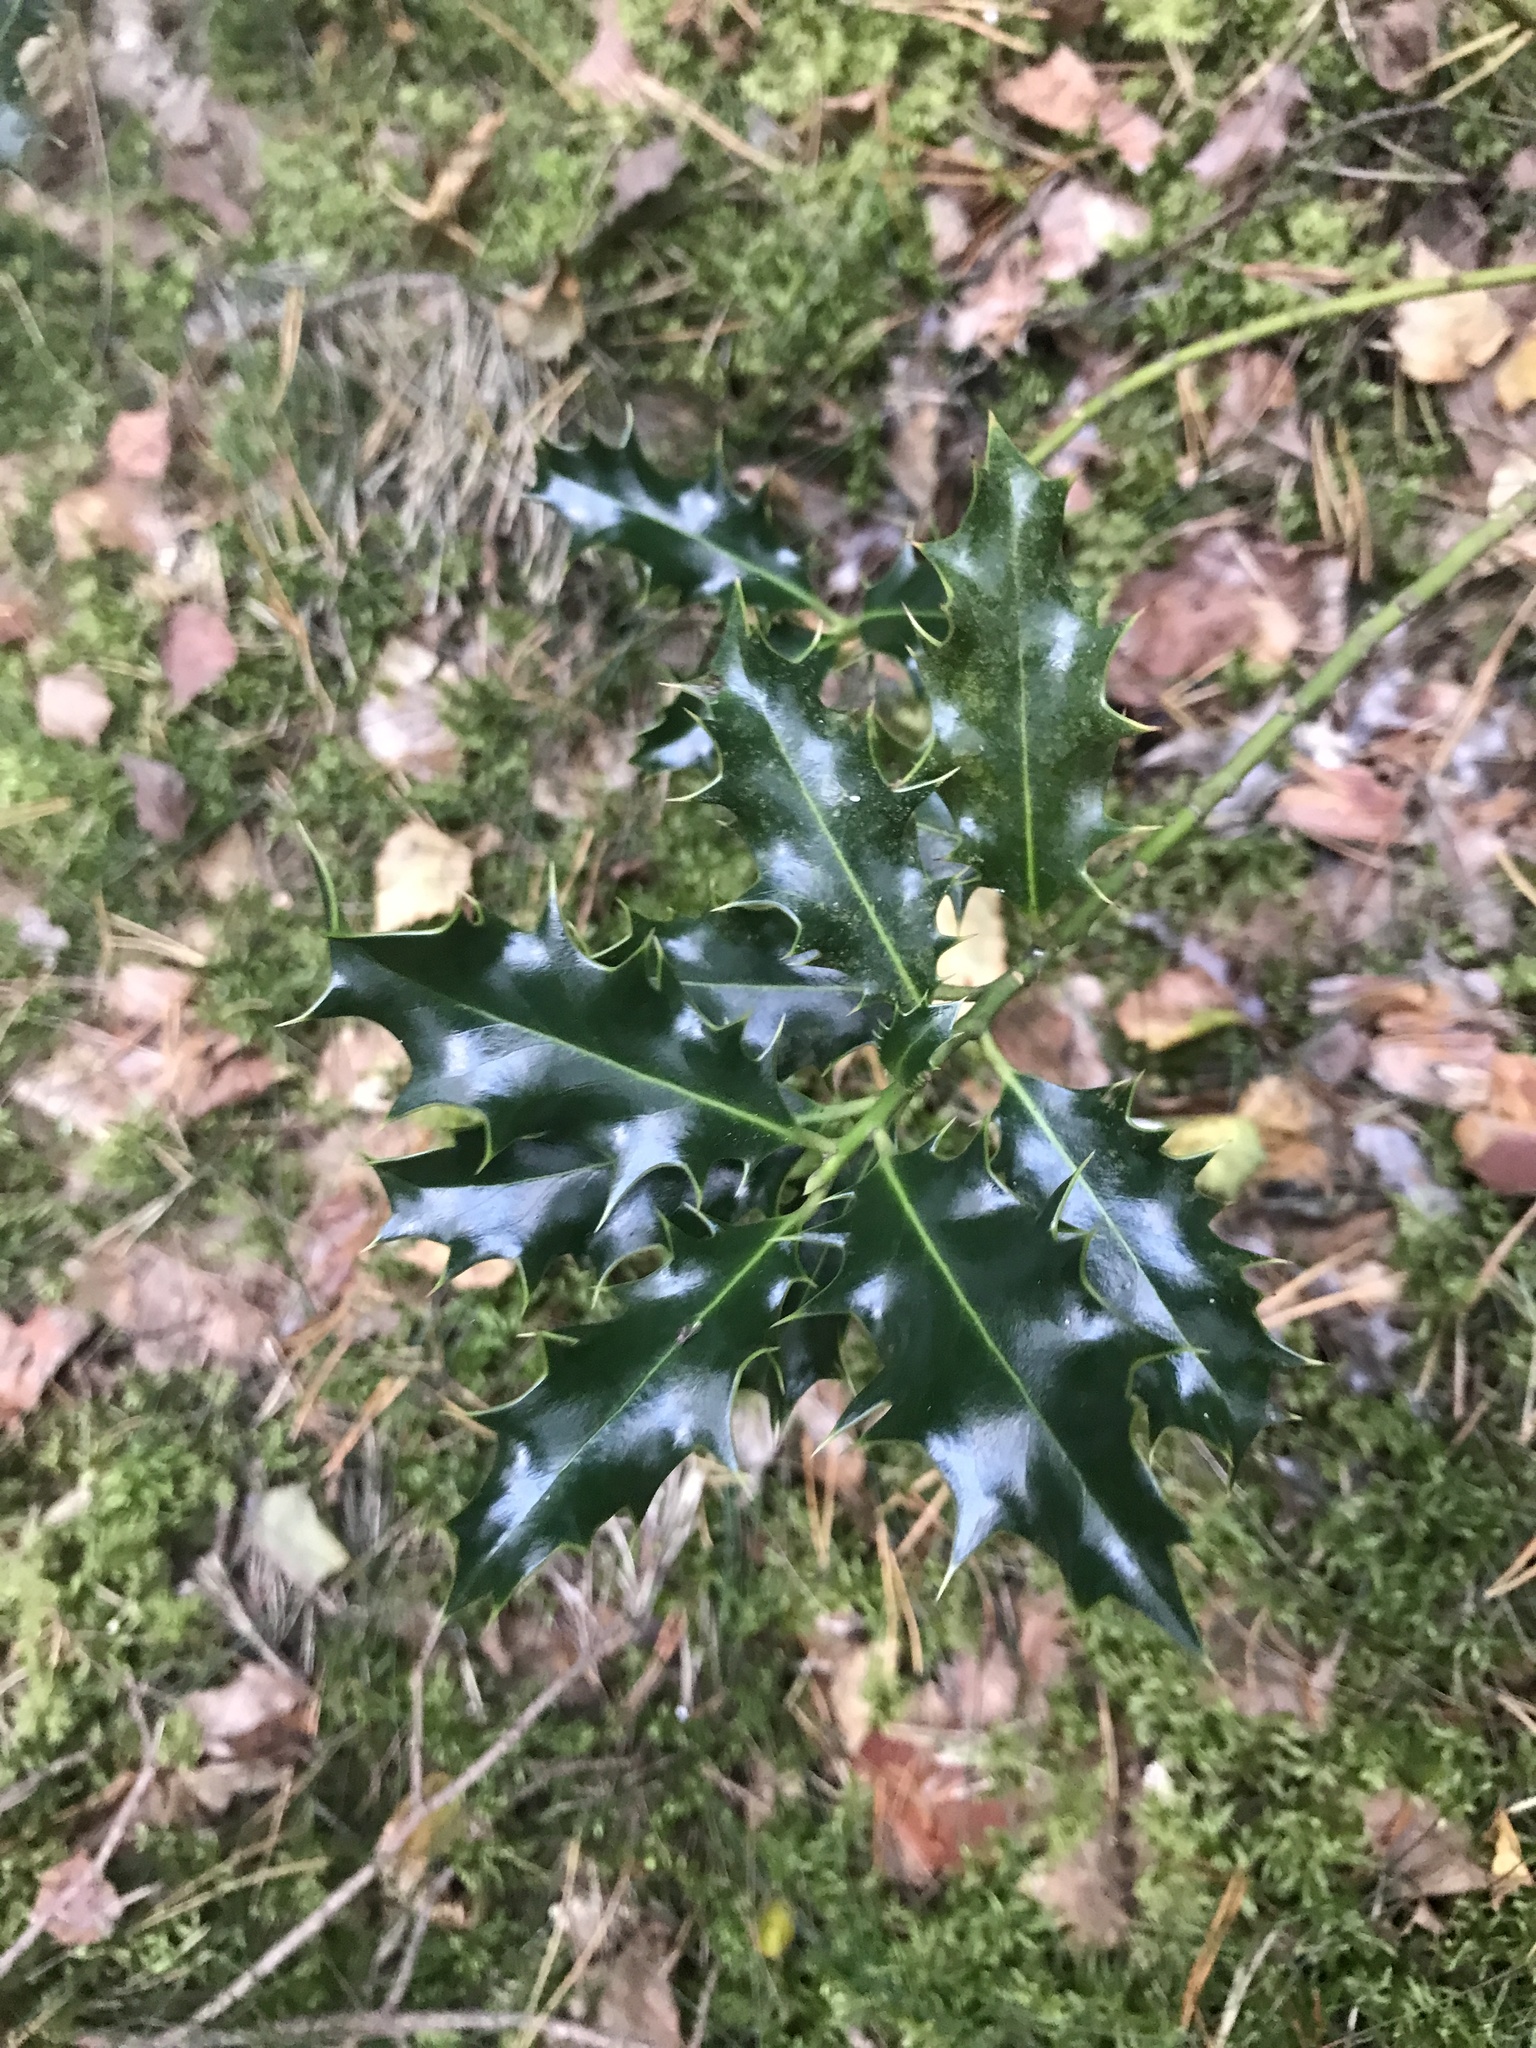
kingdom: Plantae
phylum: Tracheophyta
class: Magnoliopsida
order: Aquifoliales
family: Aquifoliaceae
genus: Ilex
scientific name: Ilex aquifolium
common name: English holly
